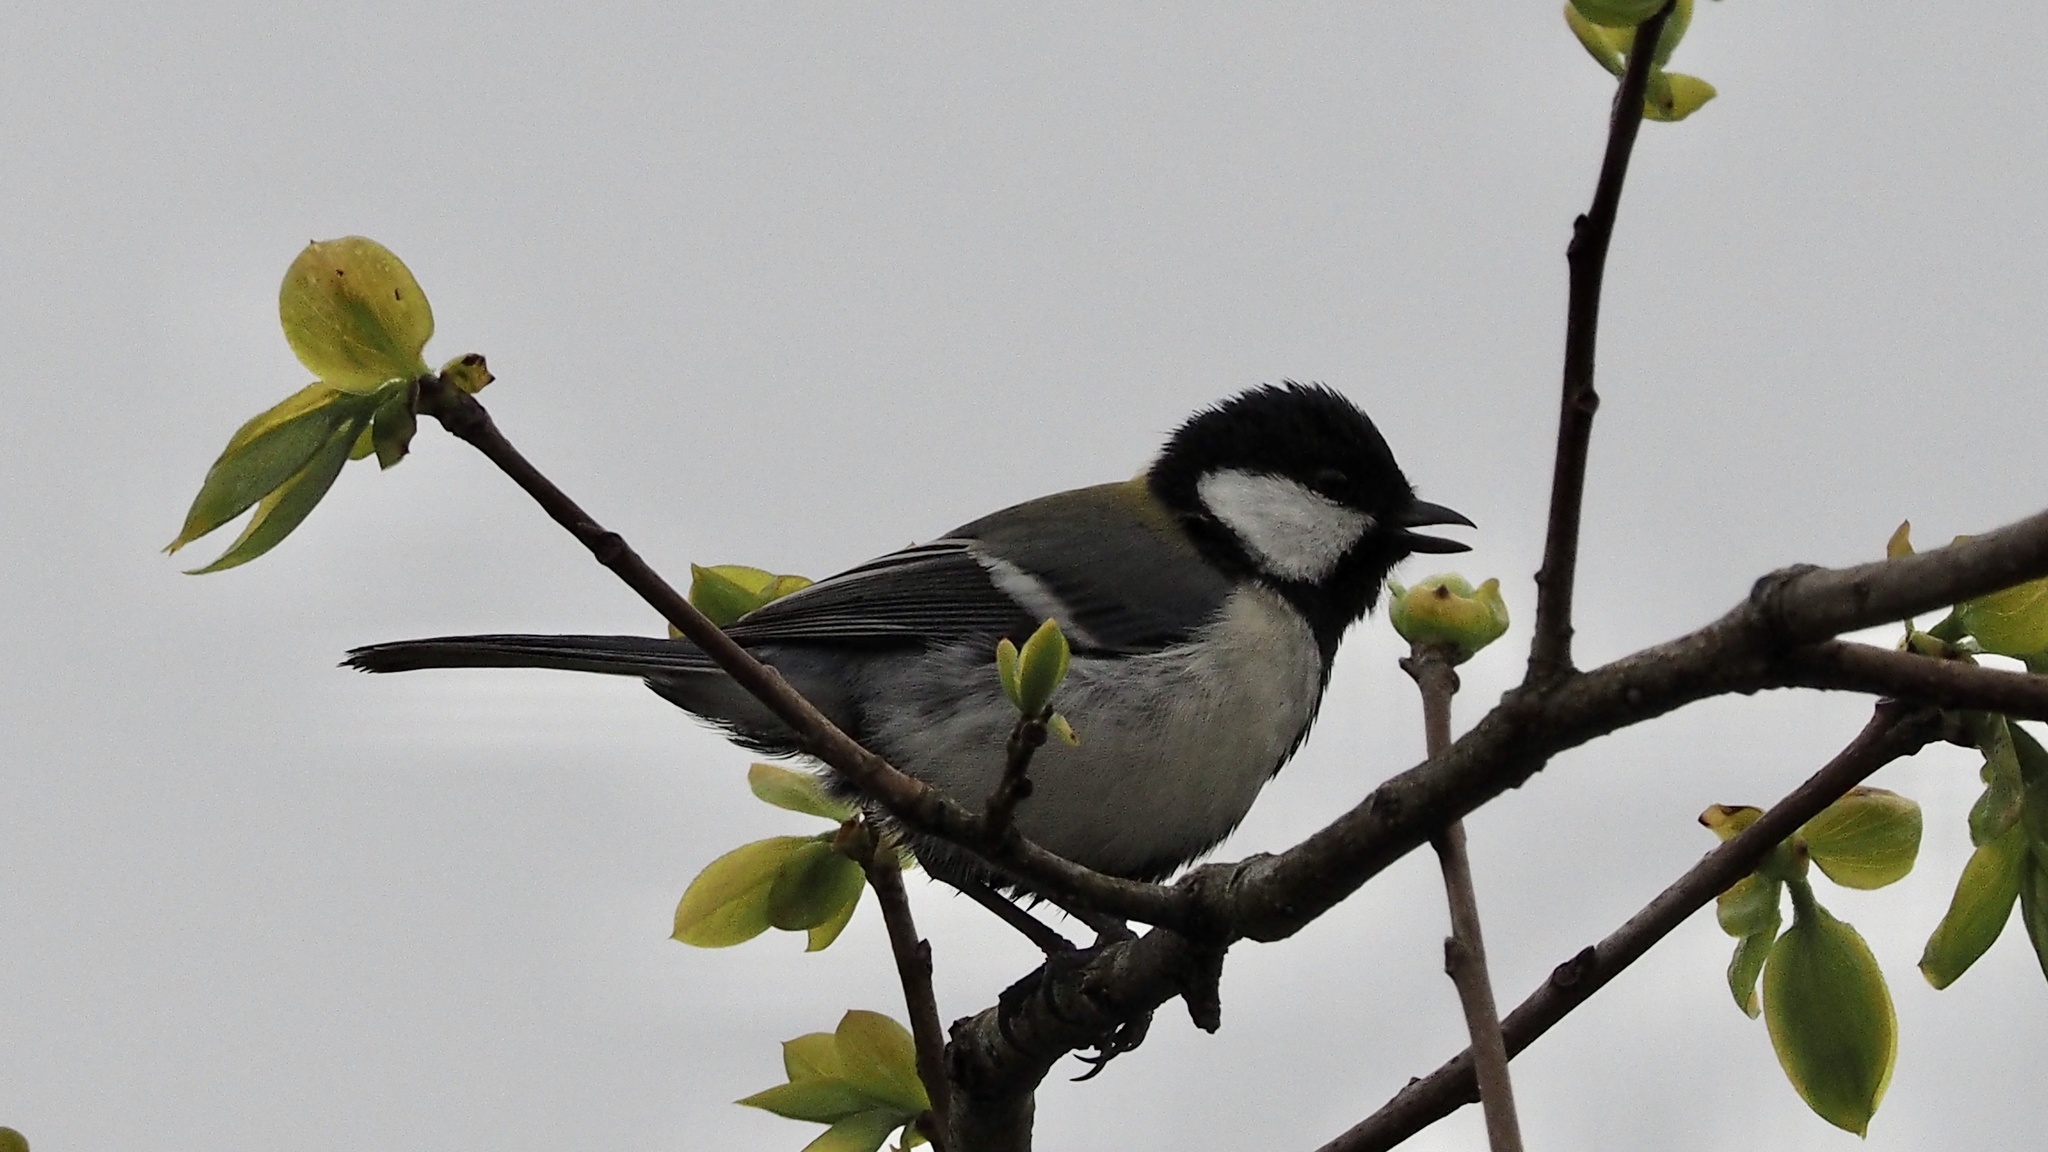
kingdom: Animalia
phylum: Chordata
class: Aves
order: Passeriformes
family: Paridae
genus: Parus
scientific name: Parus minor
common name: Japanese tit
